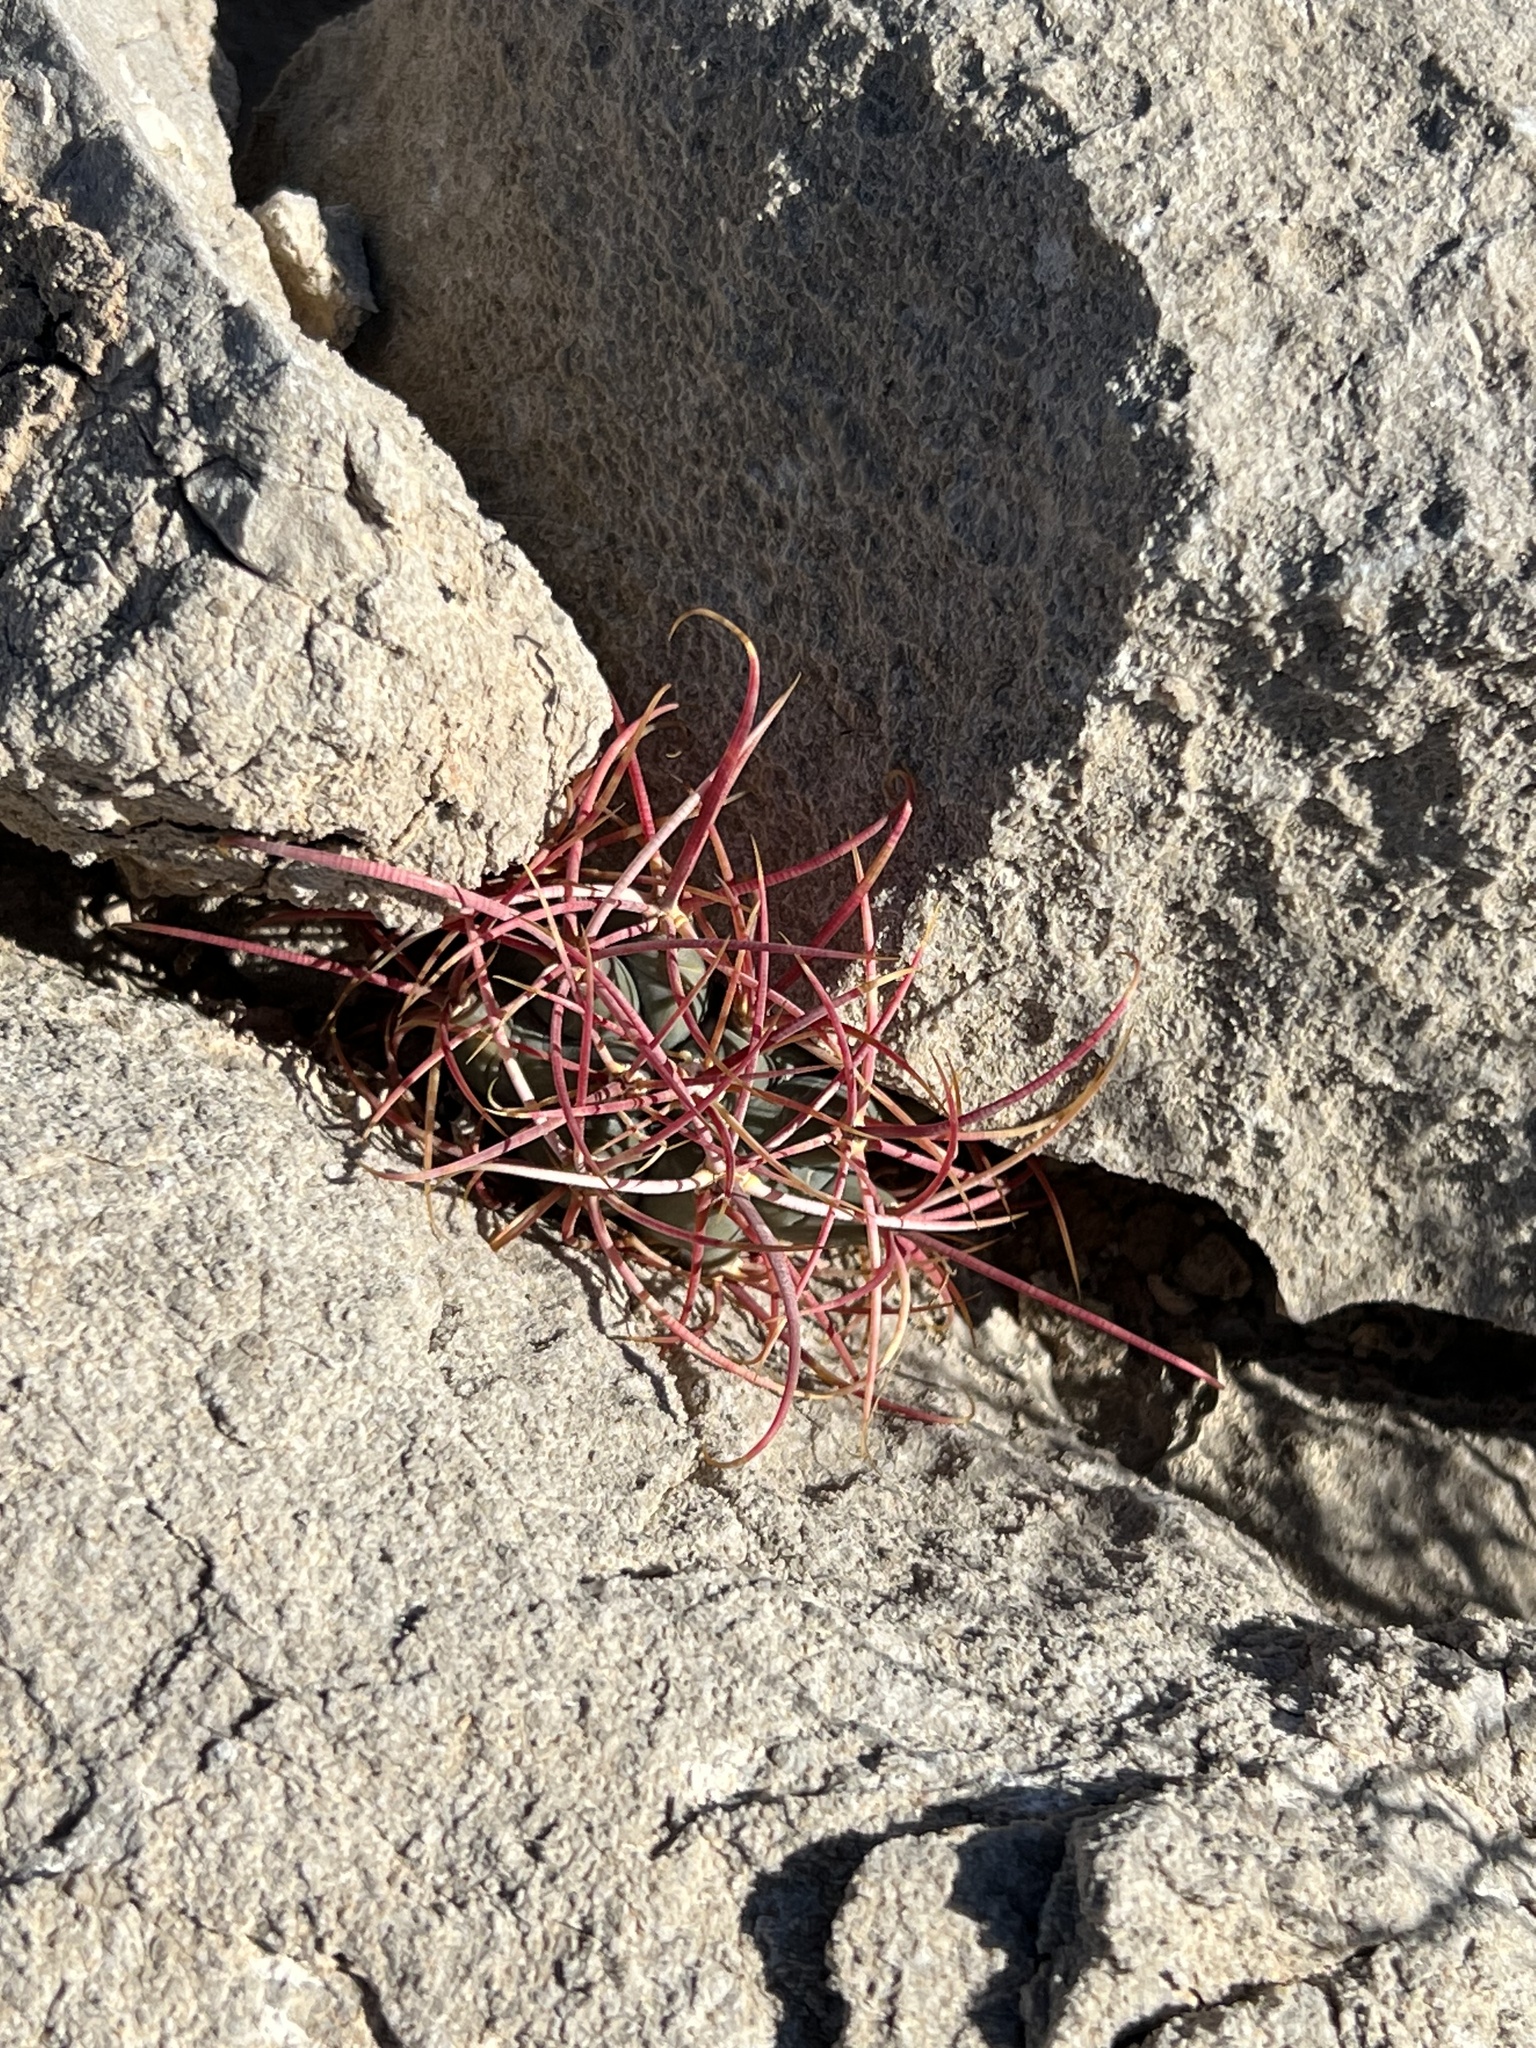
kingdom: Plantae
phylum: Tracheophyta
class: Magnoliopsida
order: Caryophyllales
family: Cactaceae
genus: Ferocactus
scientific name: Ferocactus cylindraceus
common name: California barrel cactus
